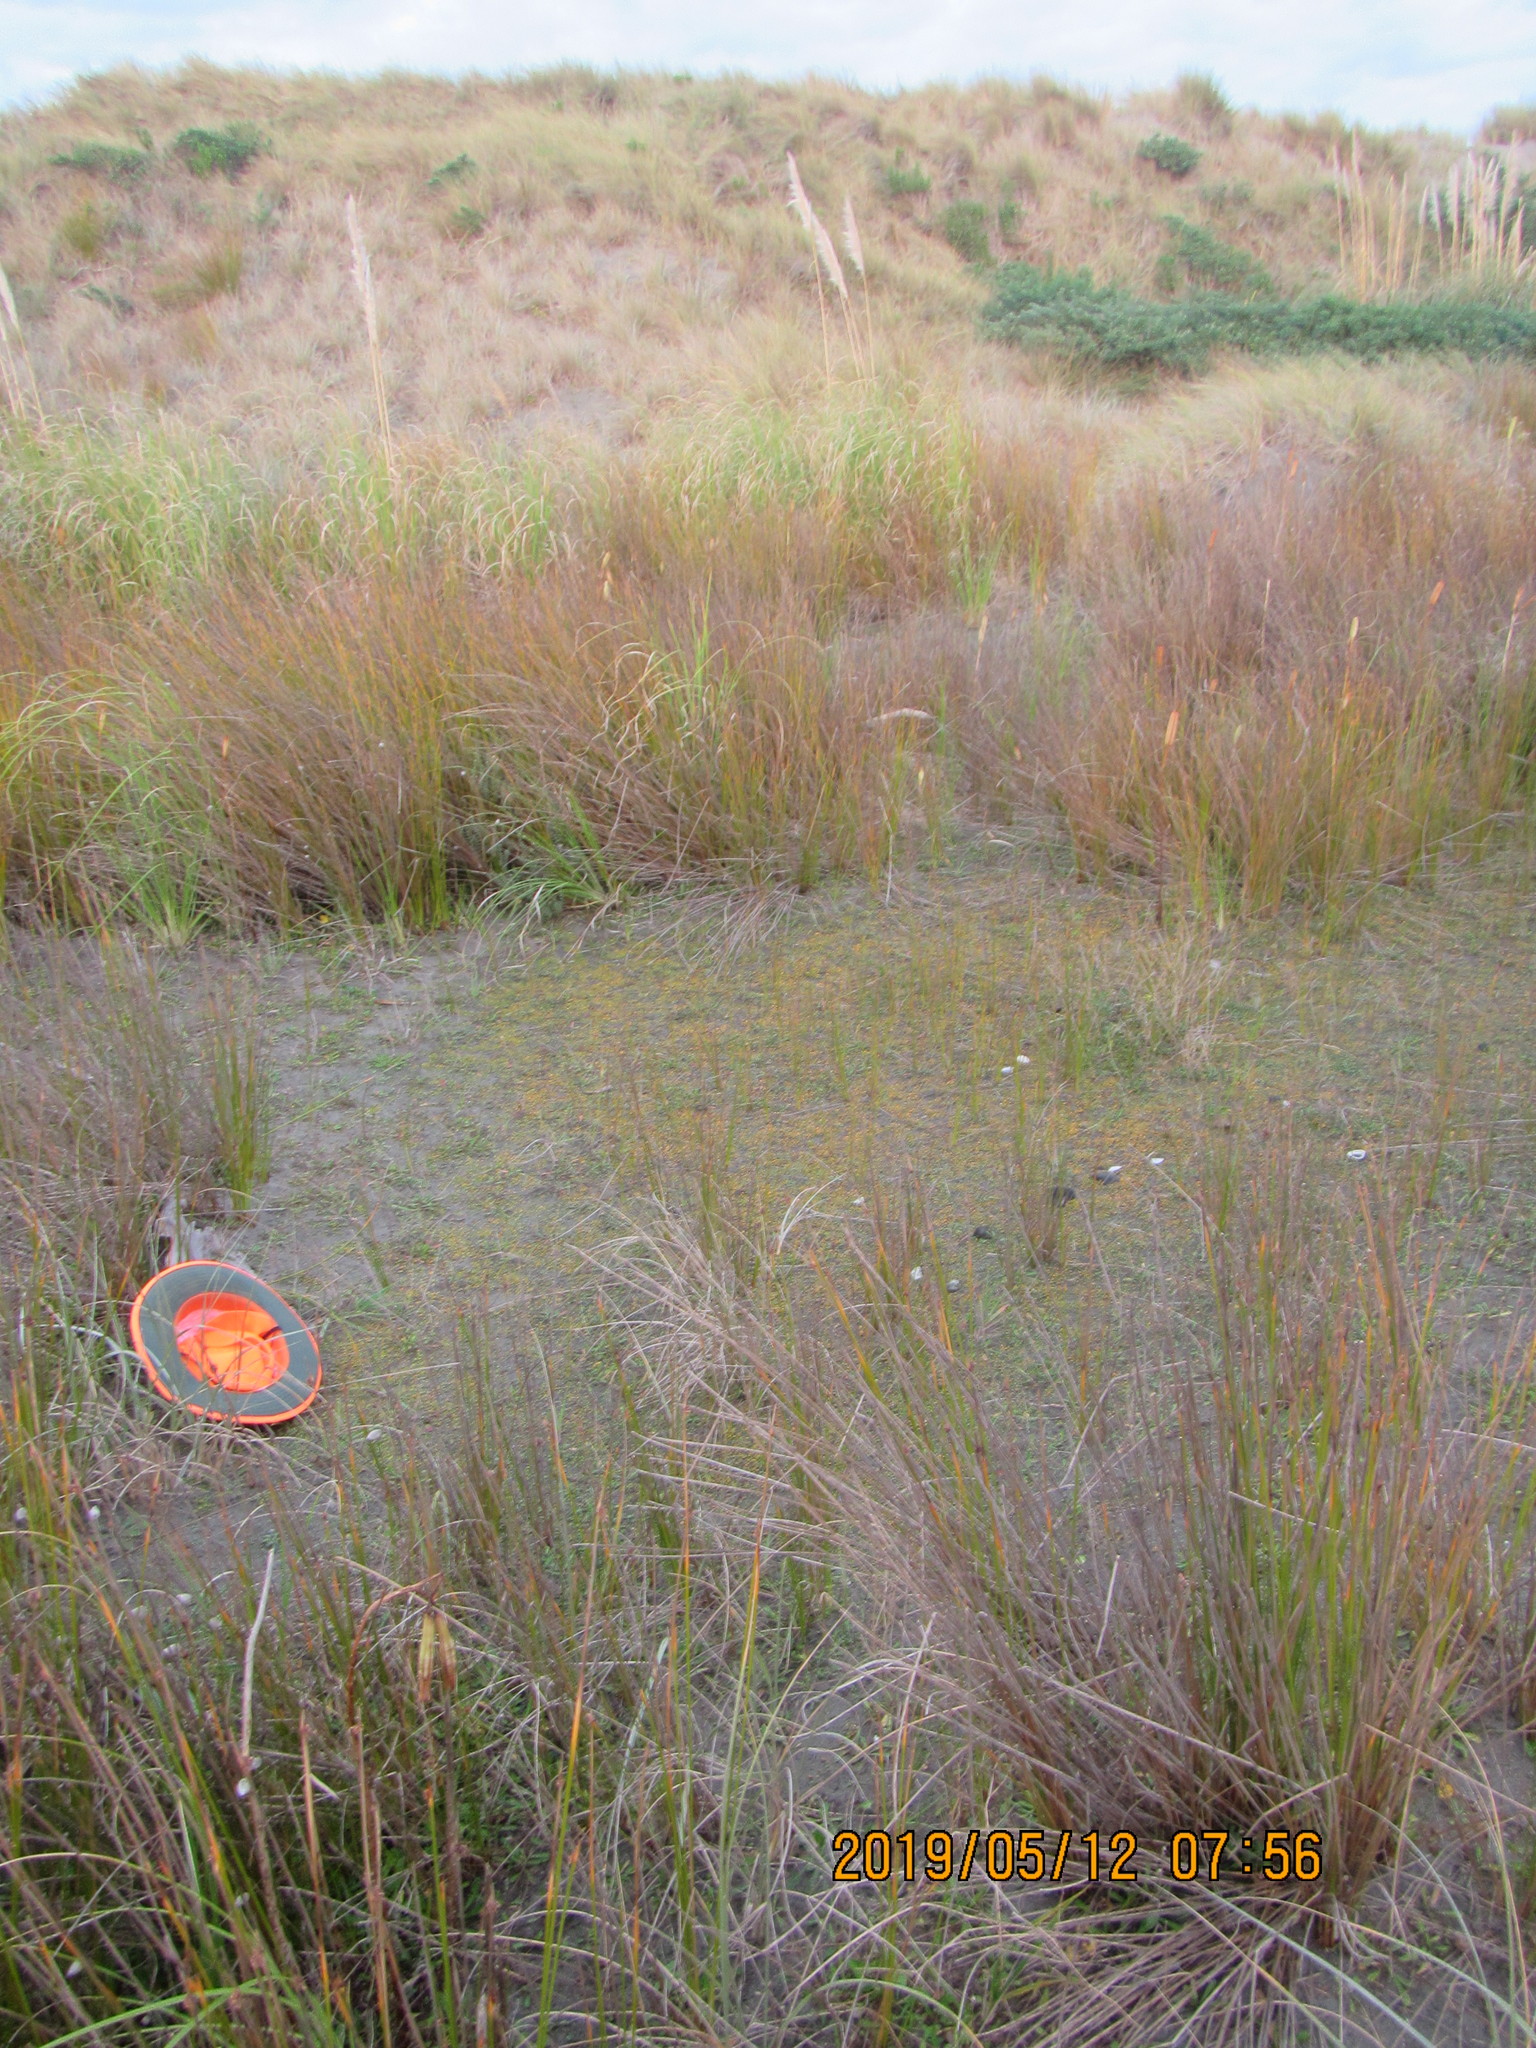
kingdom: Animalia
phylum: Arthropoda
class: Arachnida
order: Araneae
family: Theridiidae
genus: Steatoda
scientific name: Steatoda lepida
